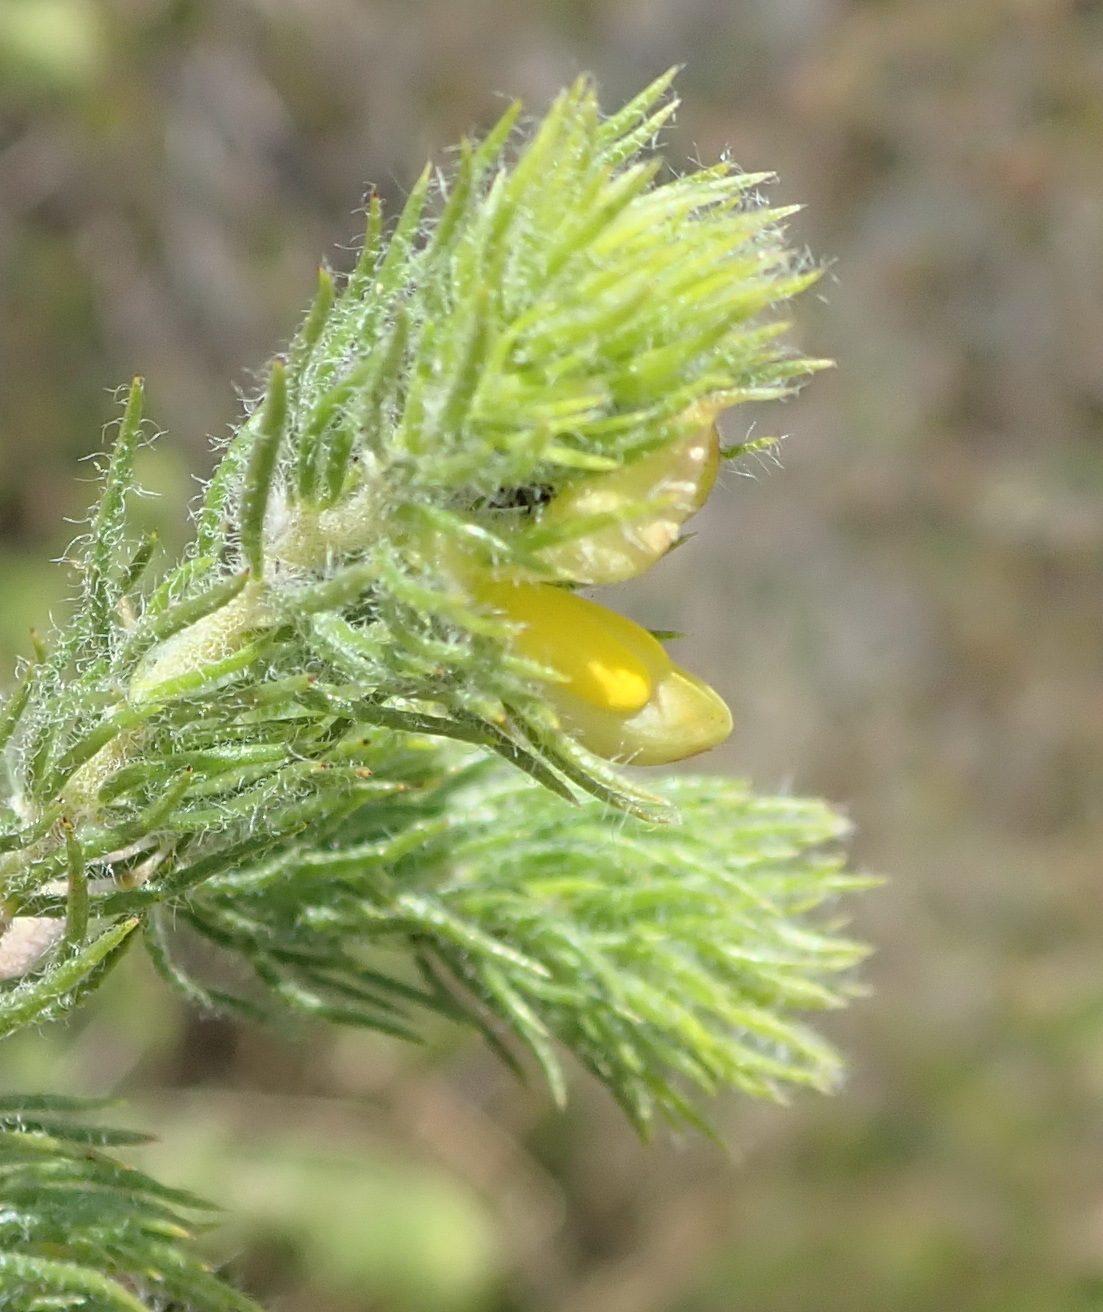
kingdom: Plantae
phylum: Tracheophyta
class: Magnoliopsida
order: Fabales
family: Fabaceae
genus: Aspalathus
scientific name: Aspalathus asparagoides
